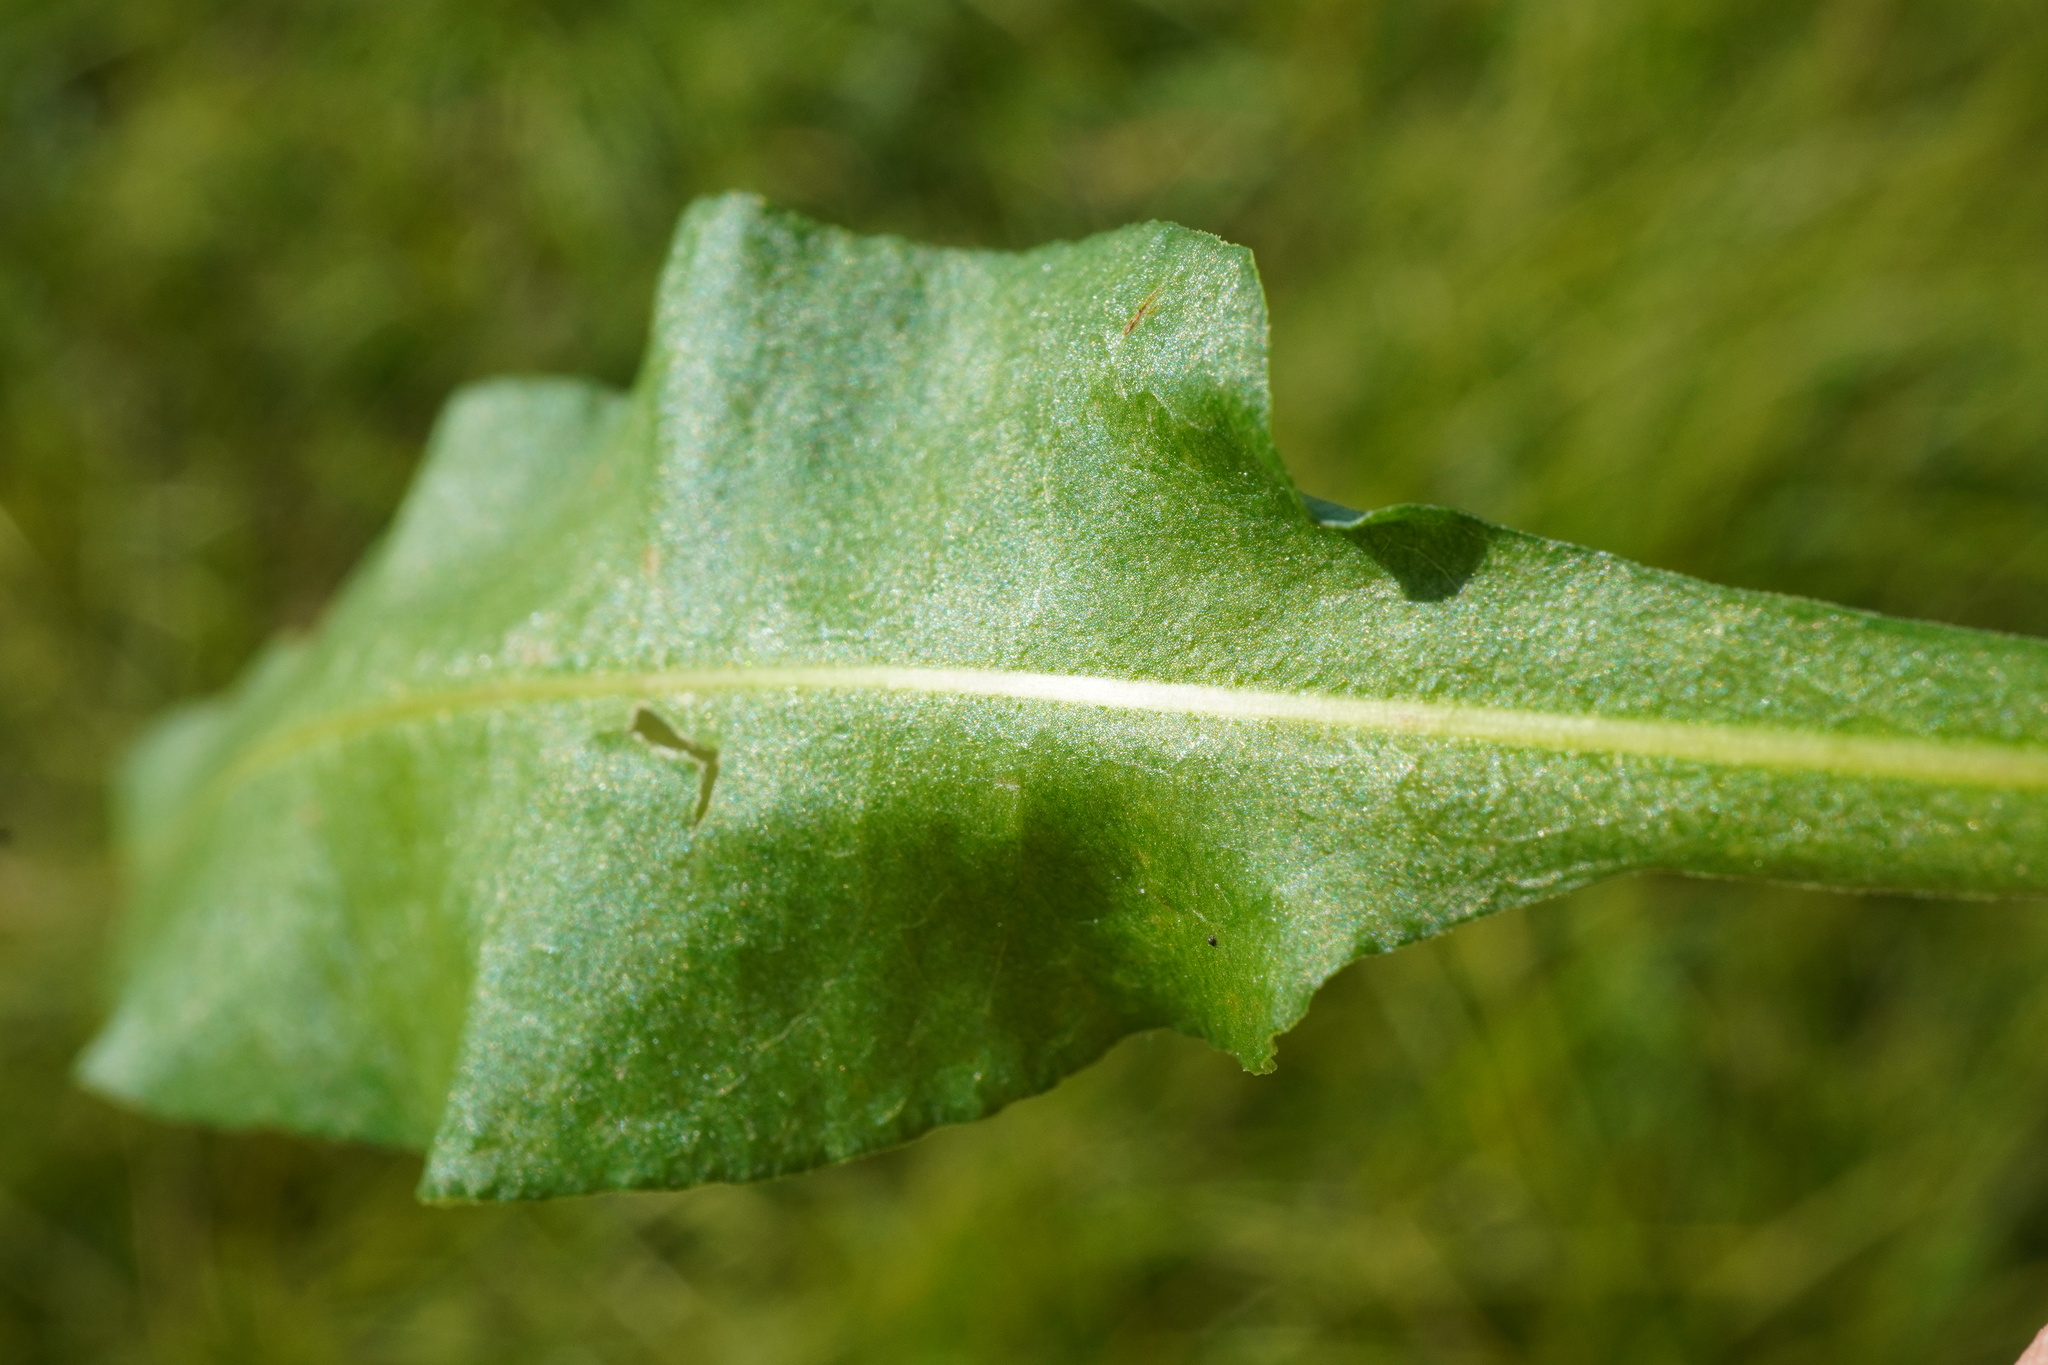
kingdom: Plantae
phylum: Tracheophyta
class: Magnoliopsida
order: Caryophyllales
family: Polygonaceae
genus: Bistorta
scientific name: Bistorta officinalis
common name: Common bistort
